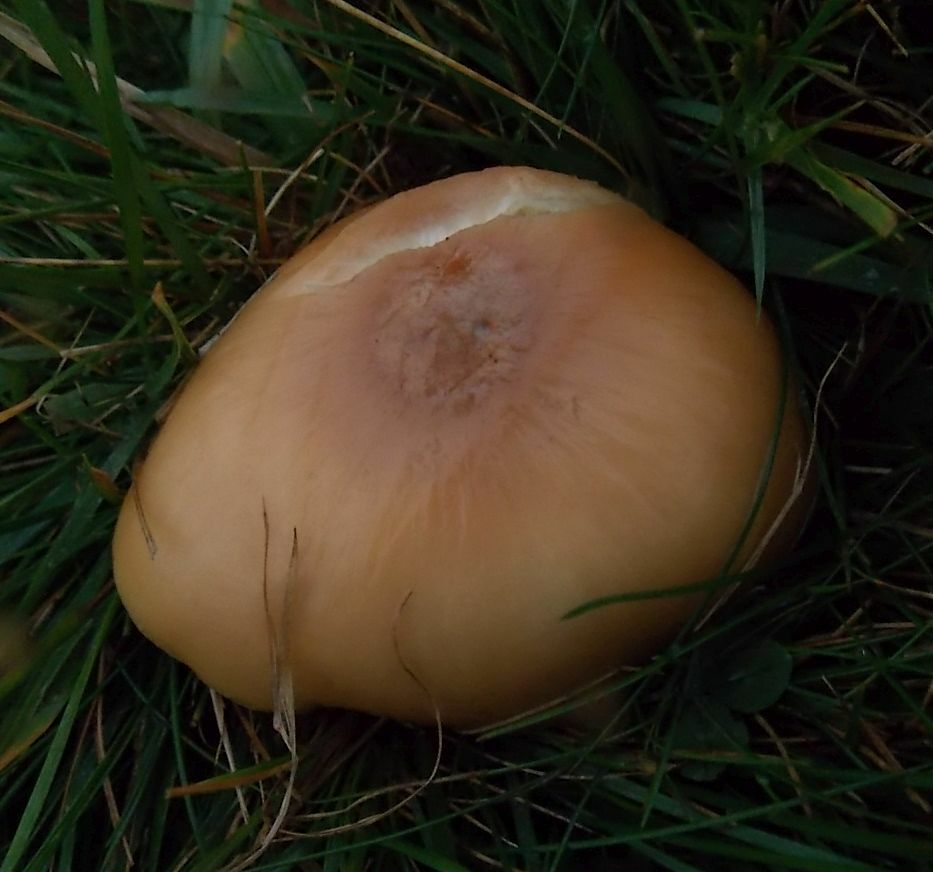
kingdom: Fungi
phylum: Basidiomycota
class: Agaricomycetes
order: Agaricales
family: Hygrophoraceae
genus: Cuphophyllus
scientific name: Cuphophyllus pratensis
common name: Meadow waxcap
